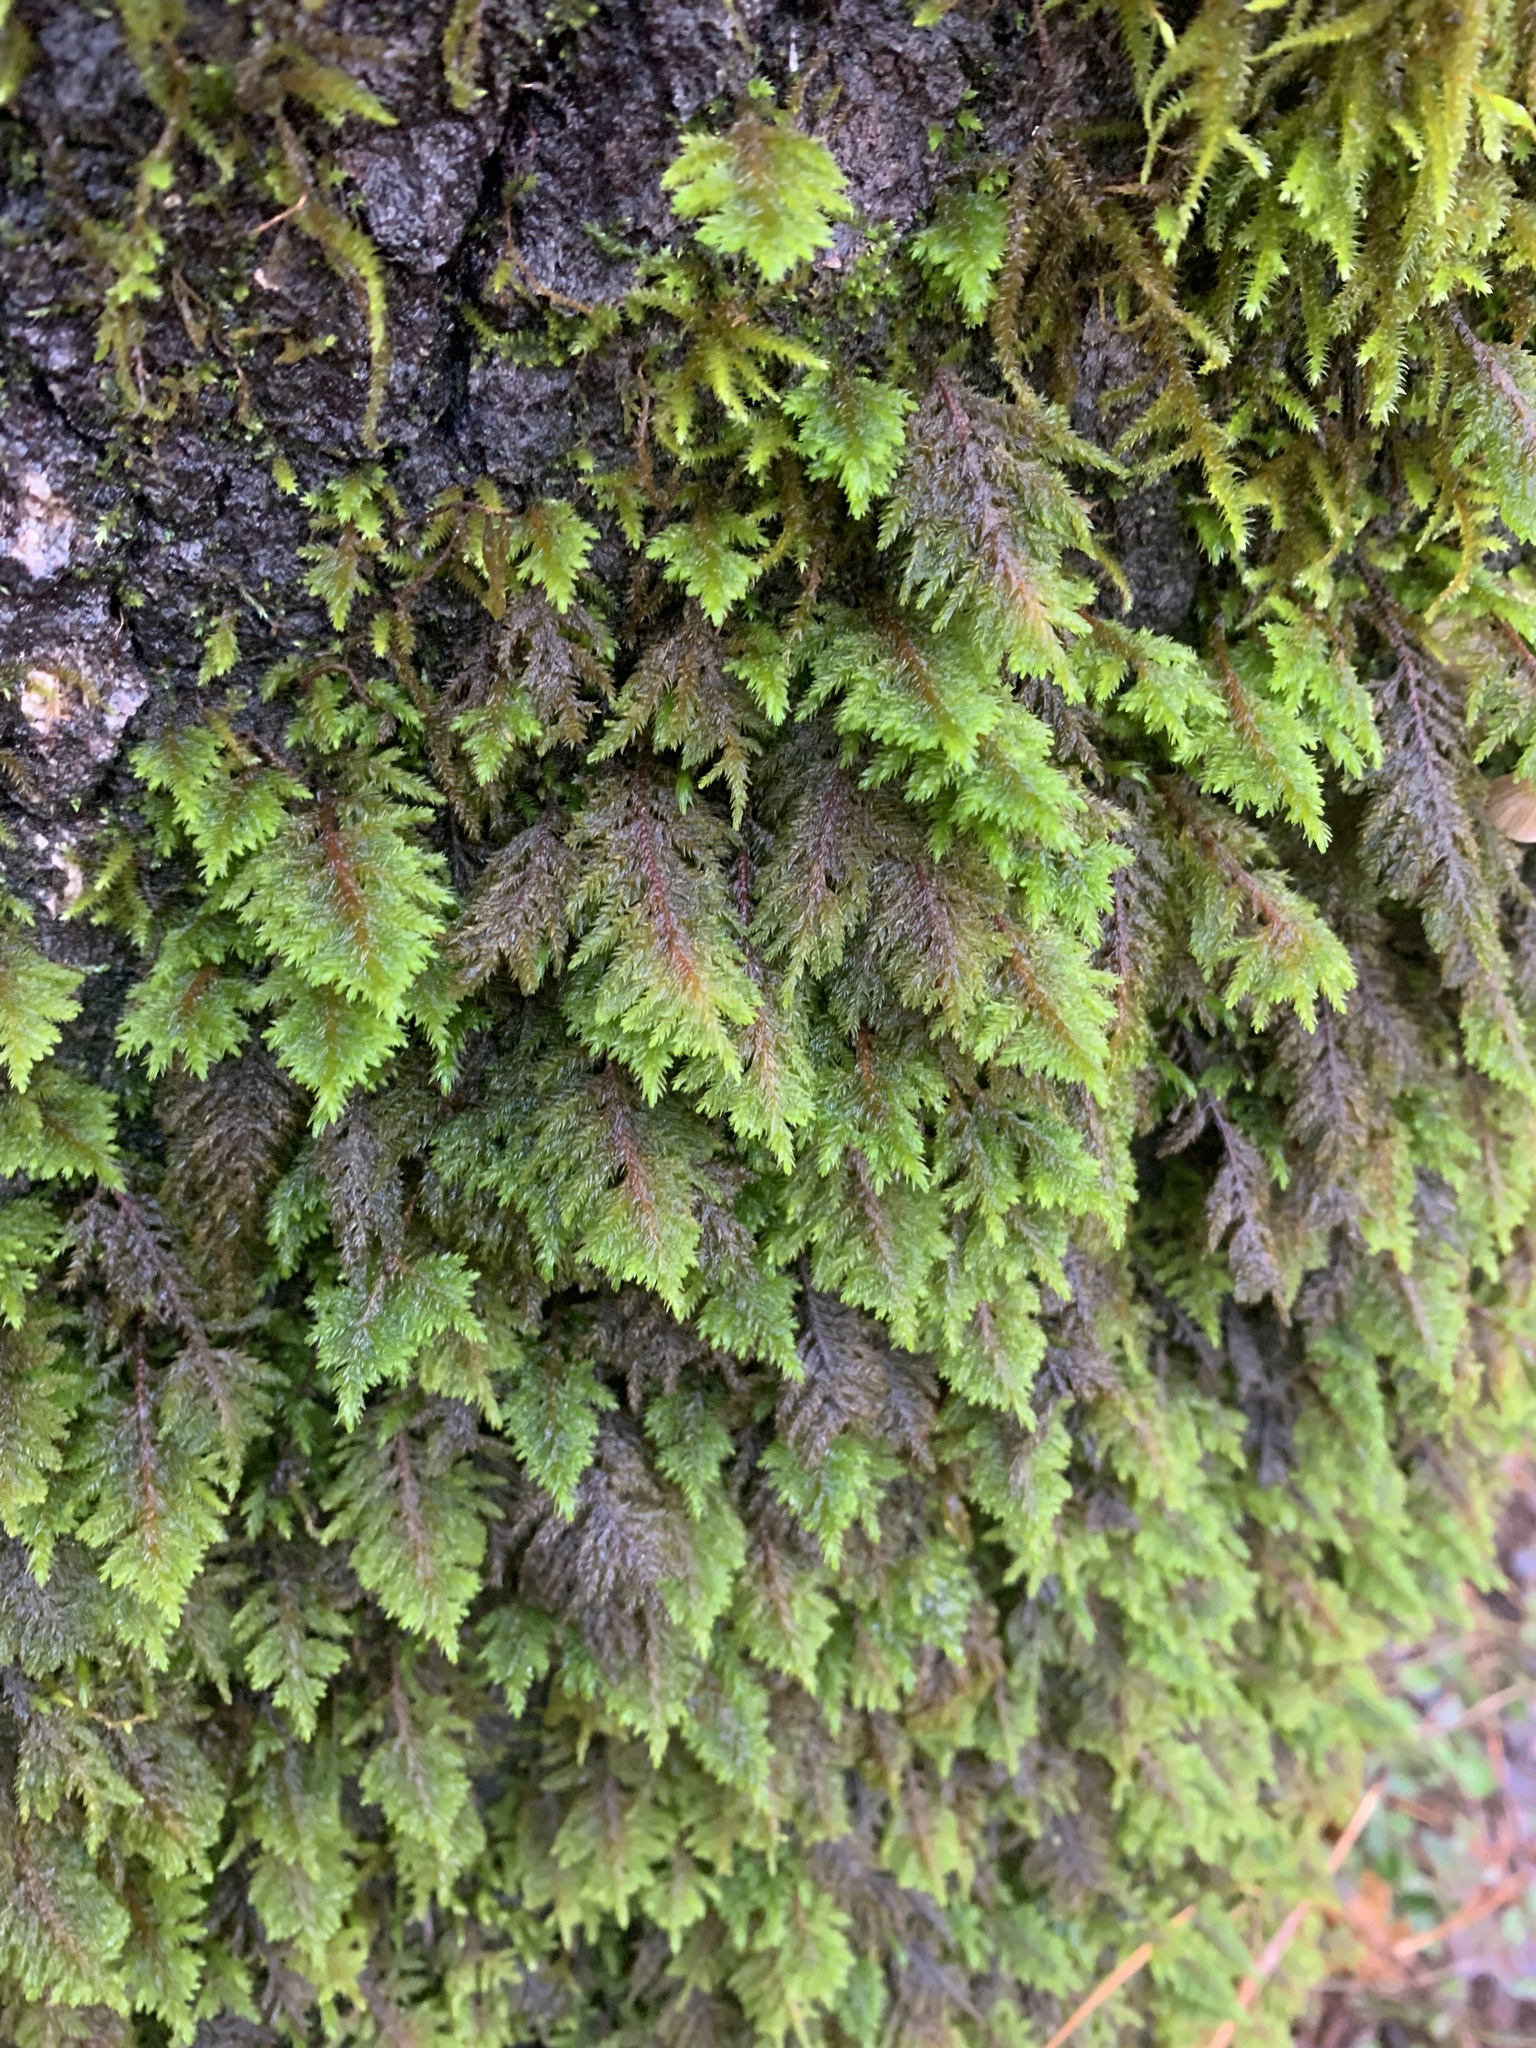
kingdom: Plantae
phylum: Bryophyta
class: Bryopsida
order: Hypnales
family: Cryphaeaceae
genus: Dendroalsia
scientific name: Dendroalsia abietina
